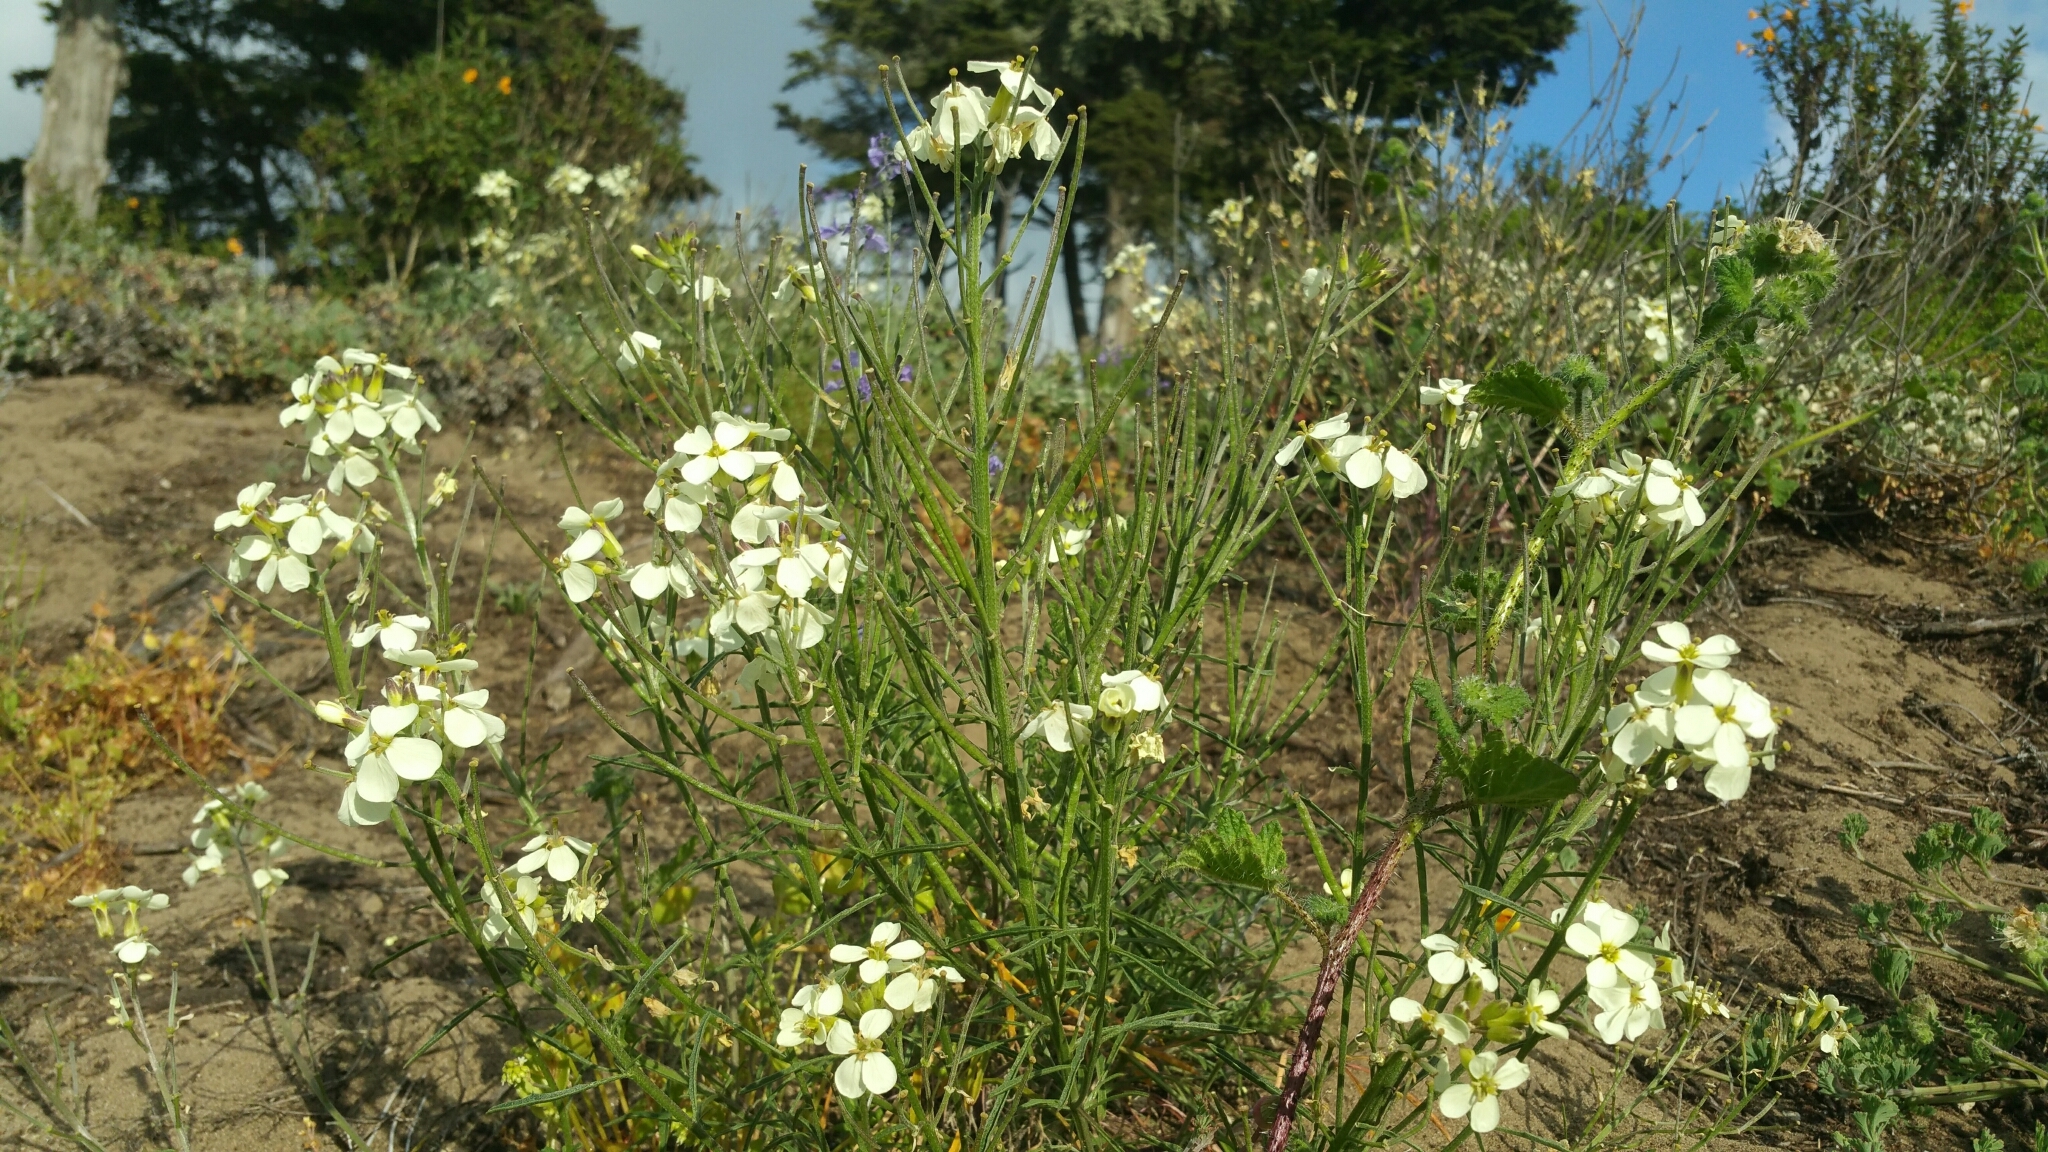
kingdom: Plantae
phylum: Tracheophyta
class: Magnoliopsida
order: Brassicales
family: Brassicaceae
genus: Erysimum
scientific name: Erysimum franciscanum
